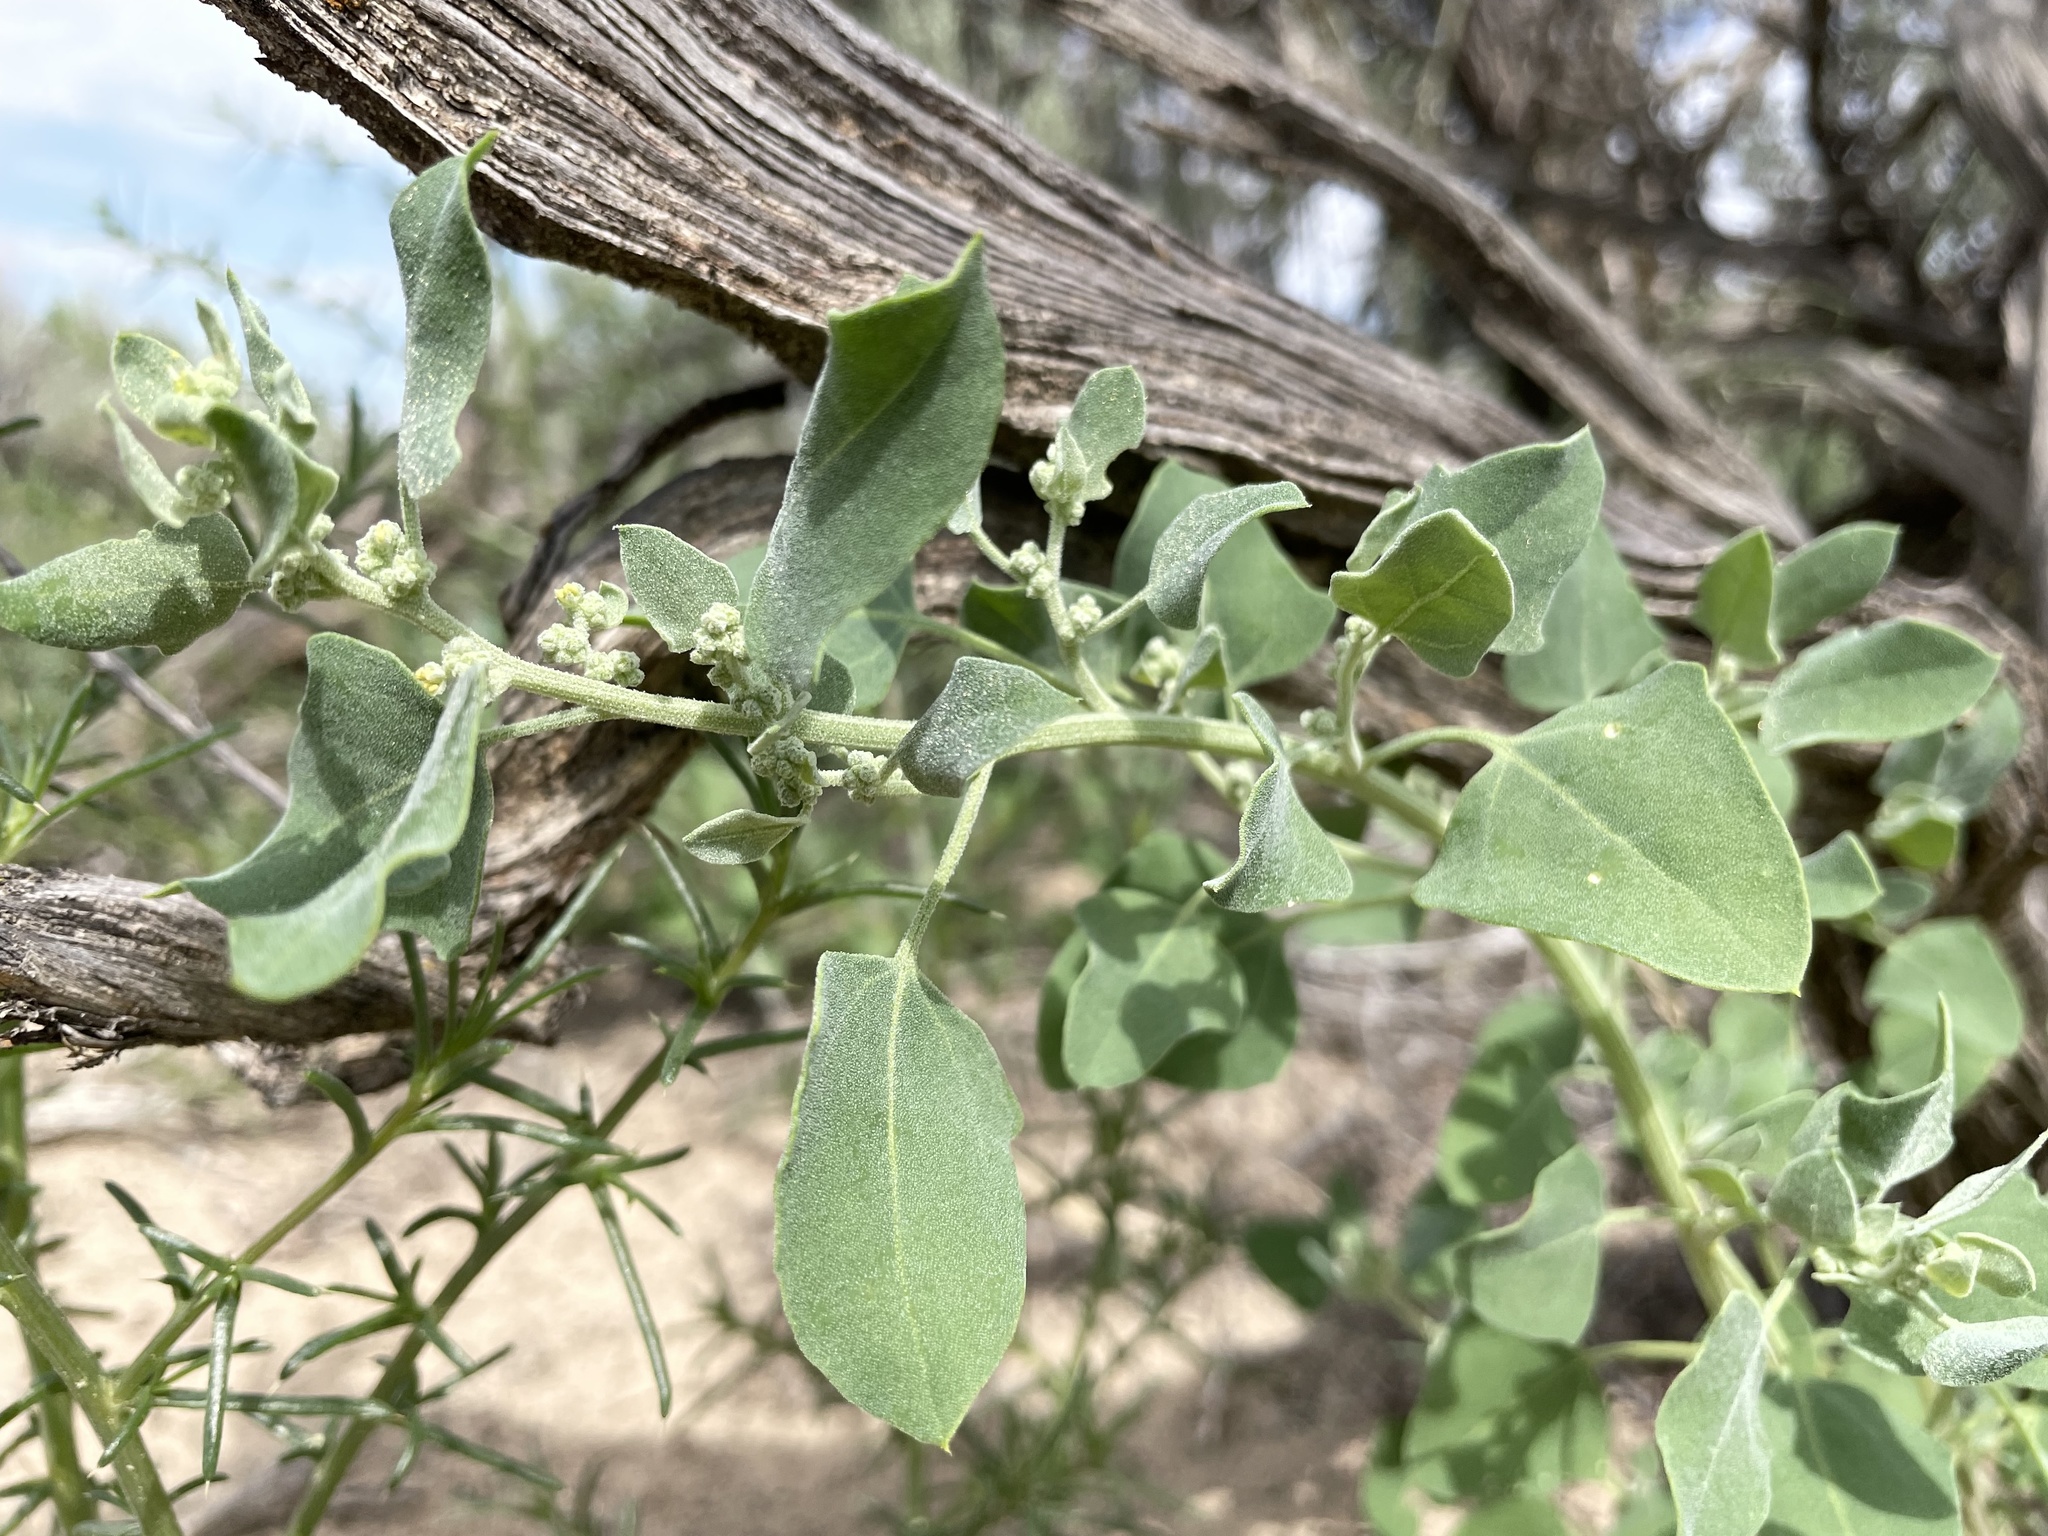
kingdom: Plantae
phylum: Tracheophyta
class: Magnoliopsida
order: Caryophyllales
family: Amaranthaceae
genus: Chenopodium
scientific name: Chenopodium incanum
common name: Hoary goosefoot
